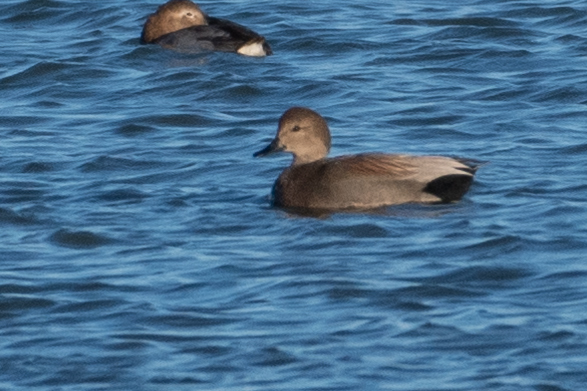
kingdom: Animalia
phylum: Chordata
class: Aves
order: Anseriformes
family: Anatidae
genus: Mareca
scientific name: Mareca strepera
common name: Gadwall
